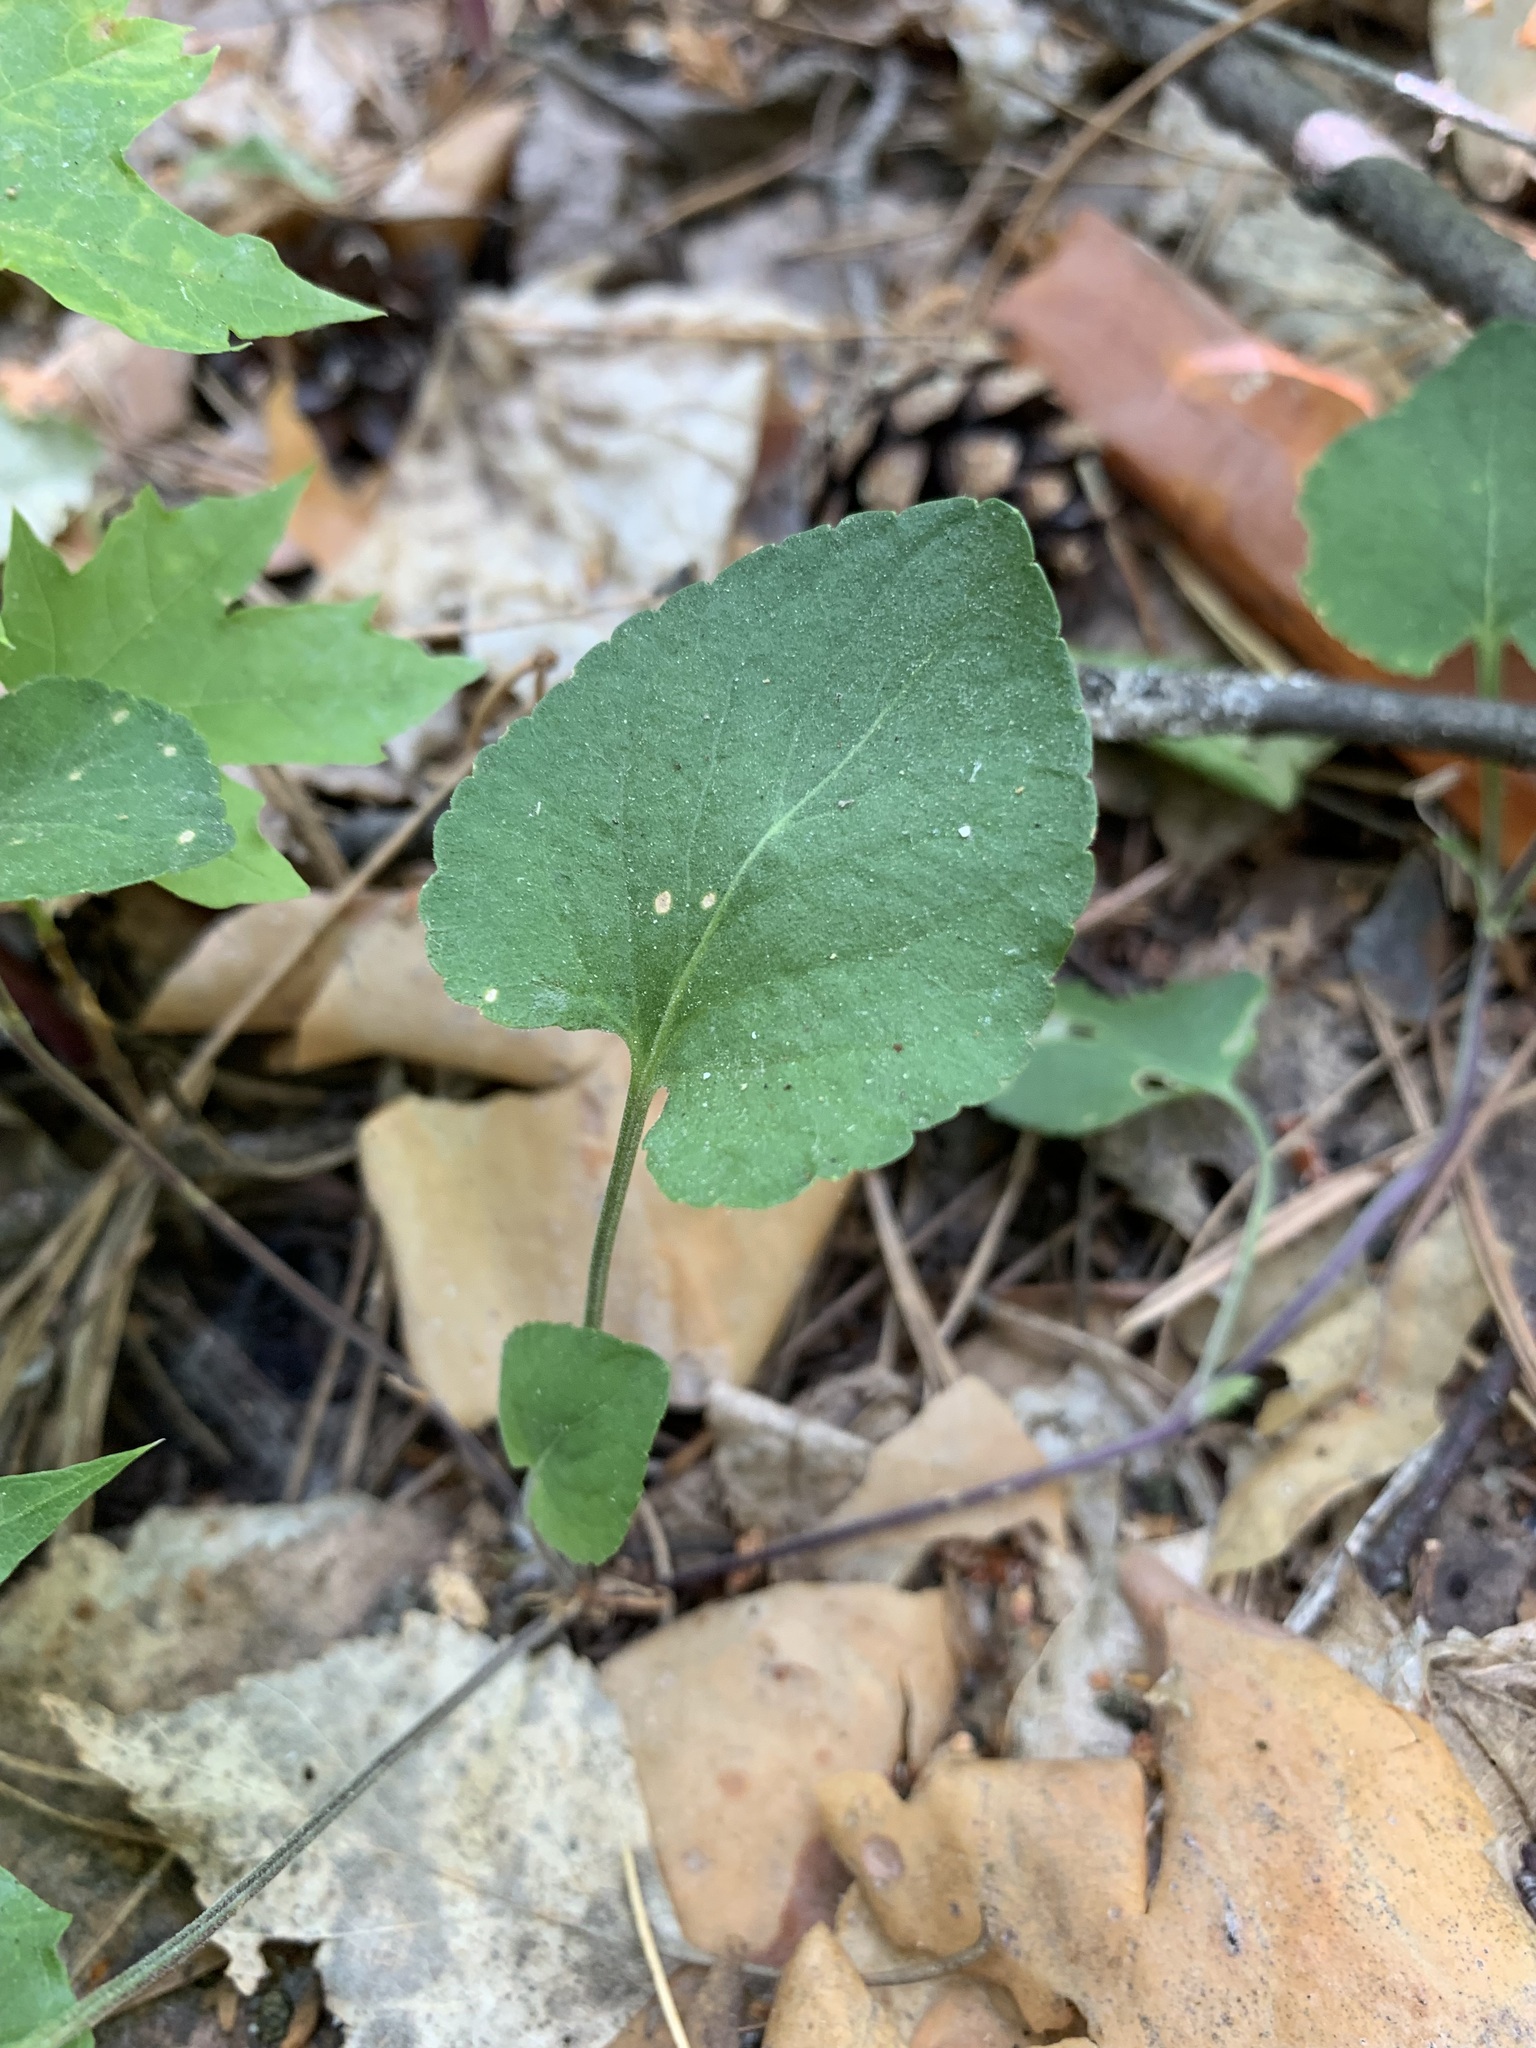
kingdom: Plantae
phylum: Tracheophyta
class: Magnoliopsida
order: Malpighiales
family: Violaceae
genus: Viola
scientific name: Viola rupestris
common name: Teesdale violet
